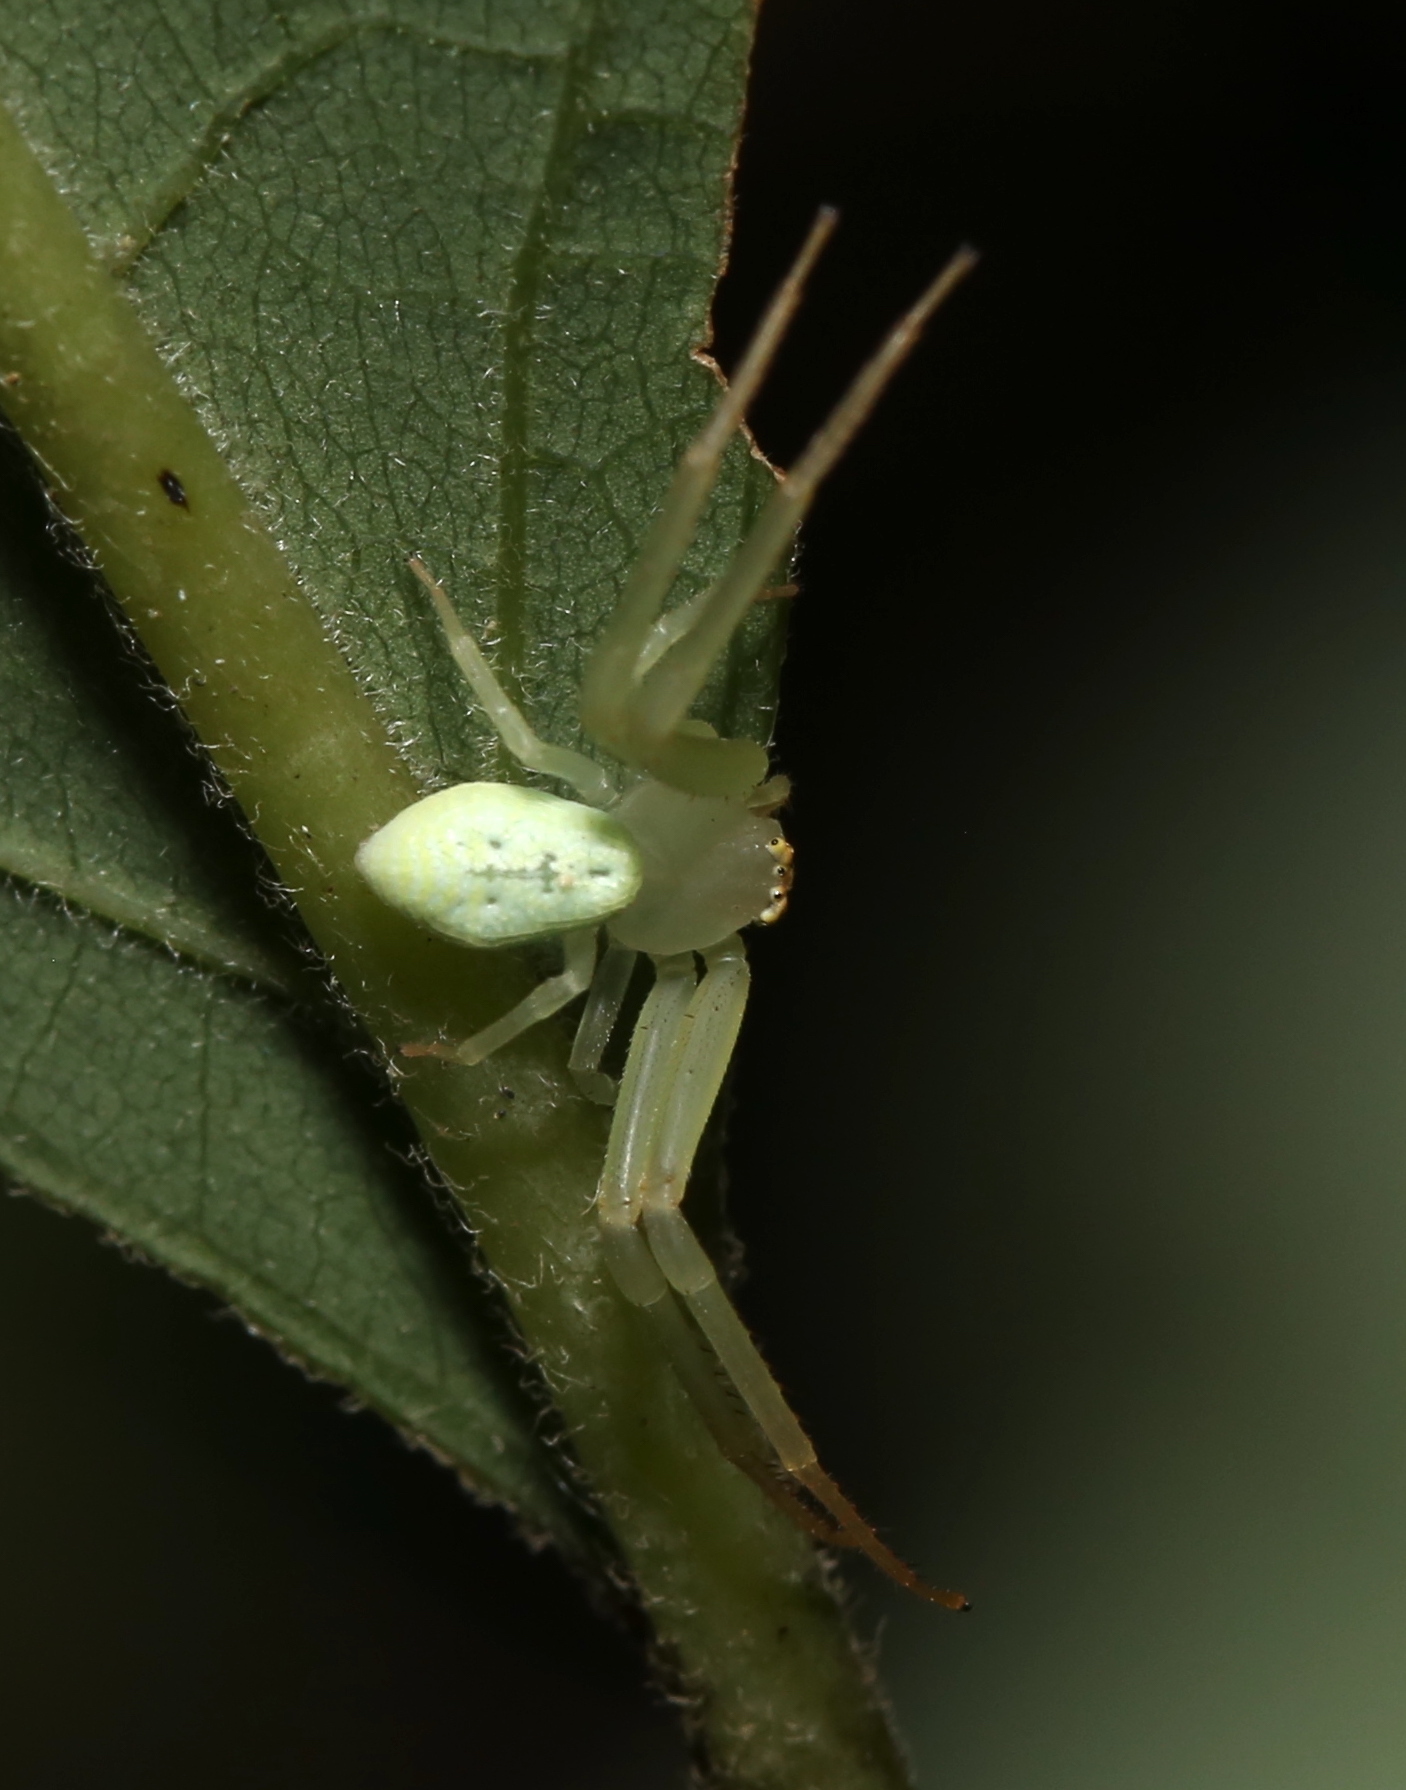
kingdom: Animalia
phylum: Arthropoda
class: Arachnida
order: Araneae
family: Thomisidae
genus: Misumessus
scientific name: Misumessus oblongus
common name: American green crab spider
